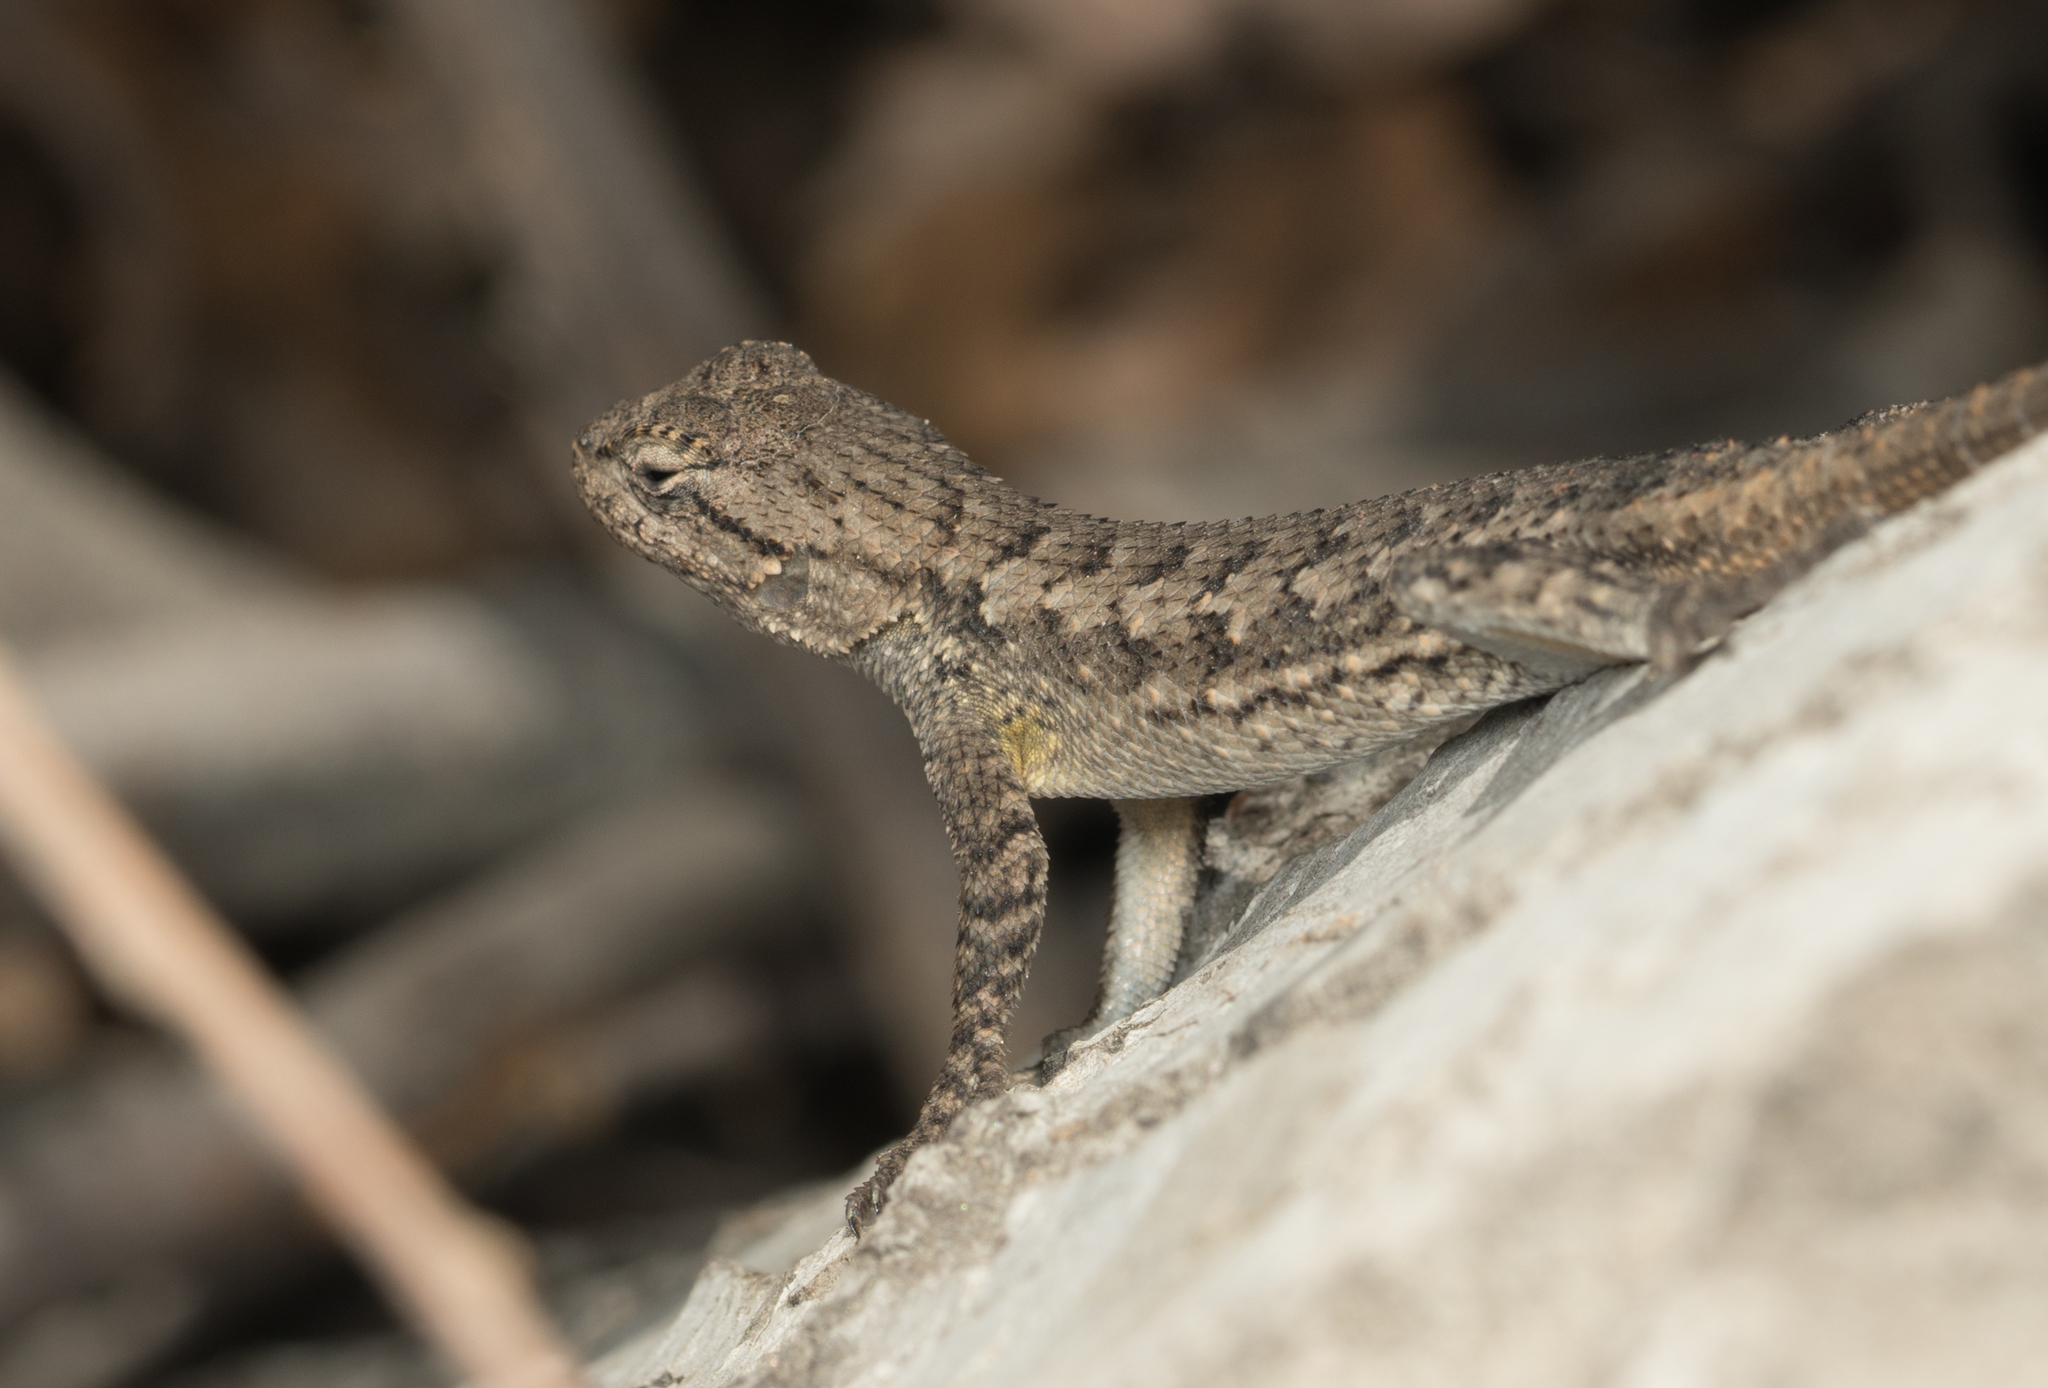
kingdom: Animalia
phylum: Chordata
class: Squamata
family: Phrynosomatidae
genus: Sceloporus
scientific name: Sceloporus occidentalis
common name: Western fence lizard
